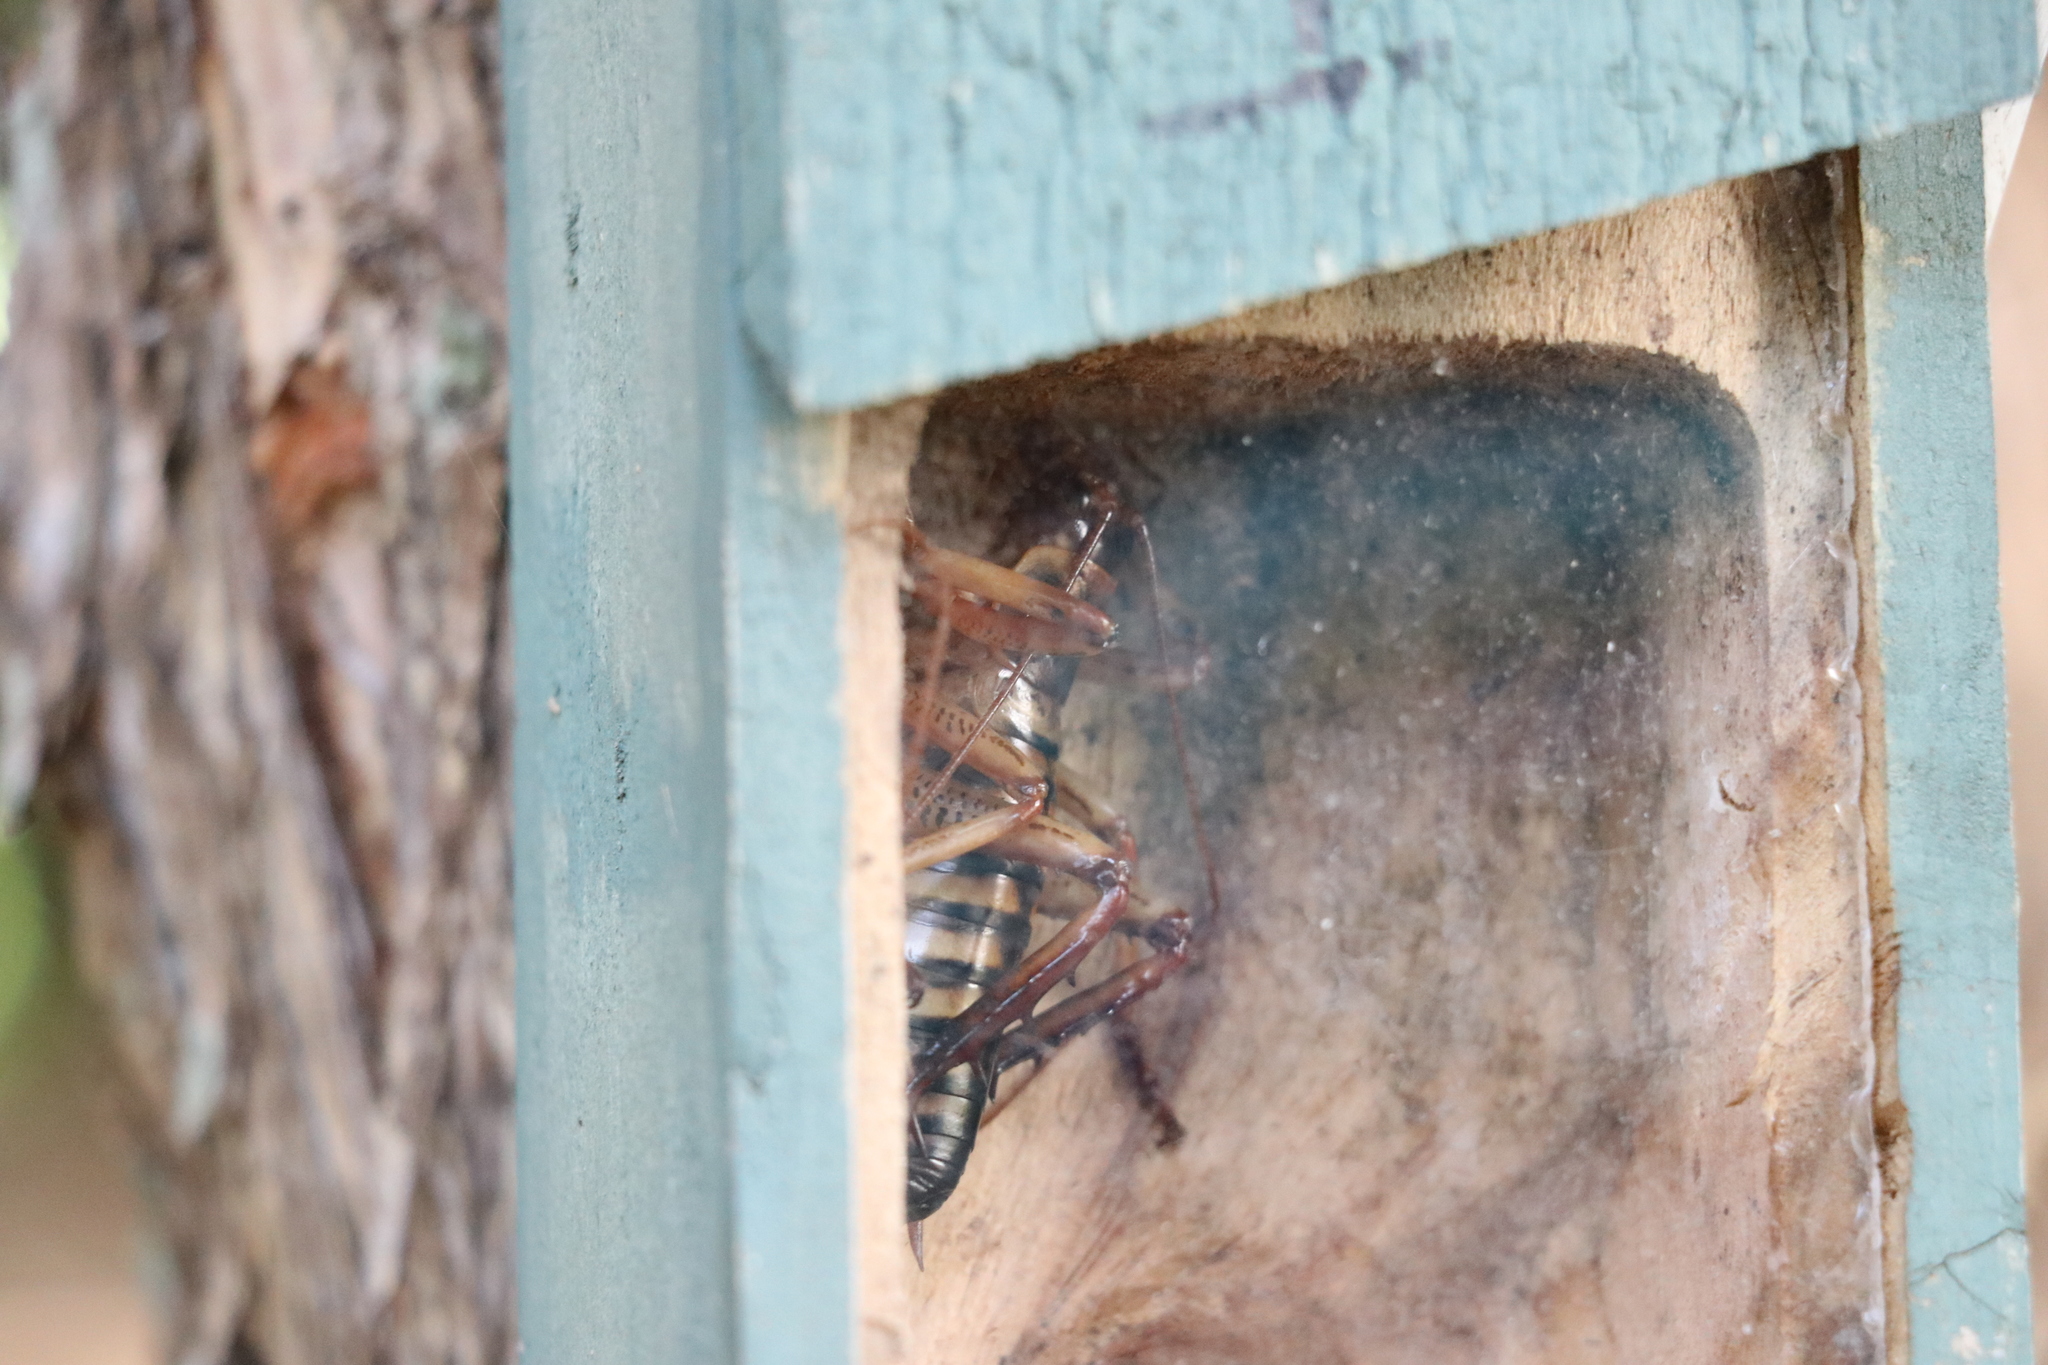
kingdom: Animalia
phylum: Arthropoda
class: Insecta
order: Orthoptera
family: Anostostomatidae
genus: Hemideina
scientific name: Hemideina crassidens
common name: Wellington tree weta
